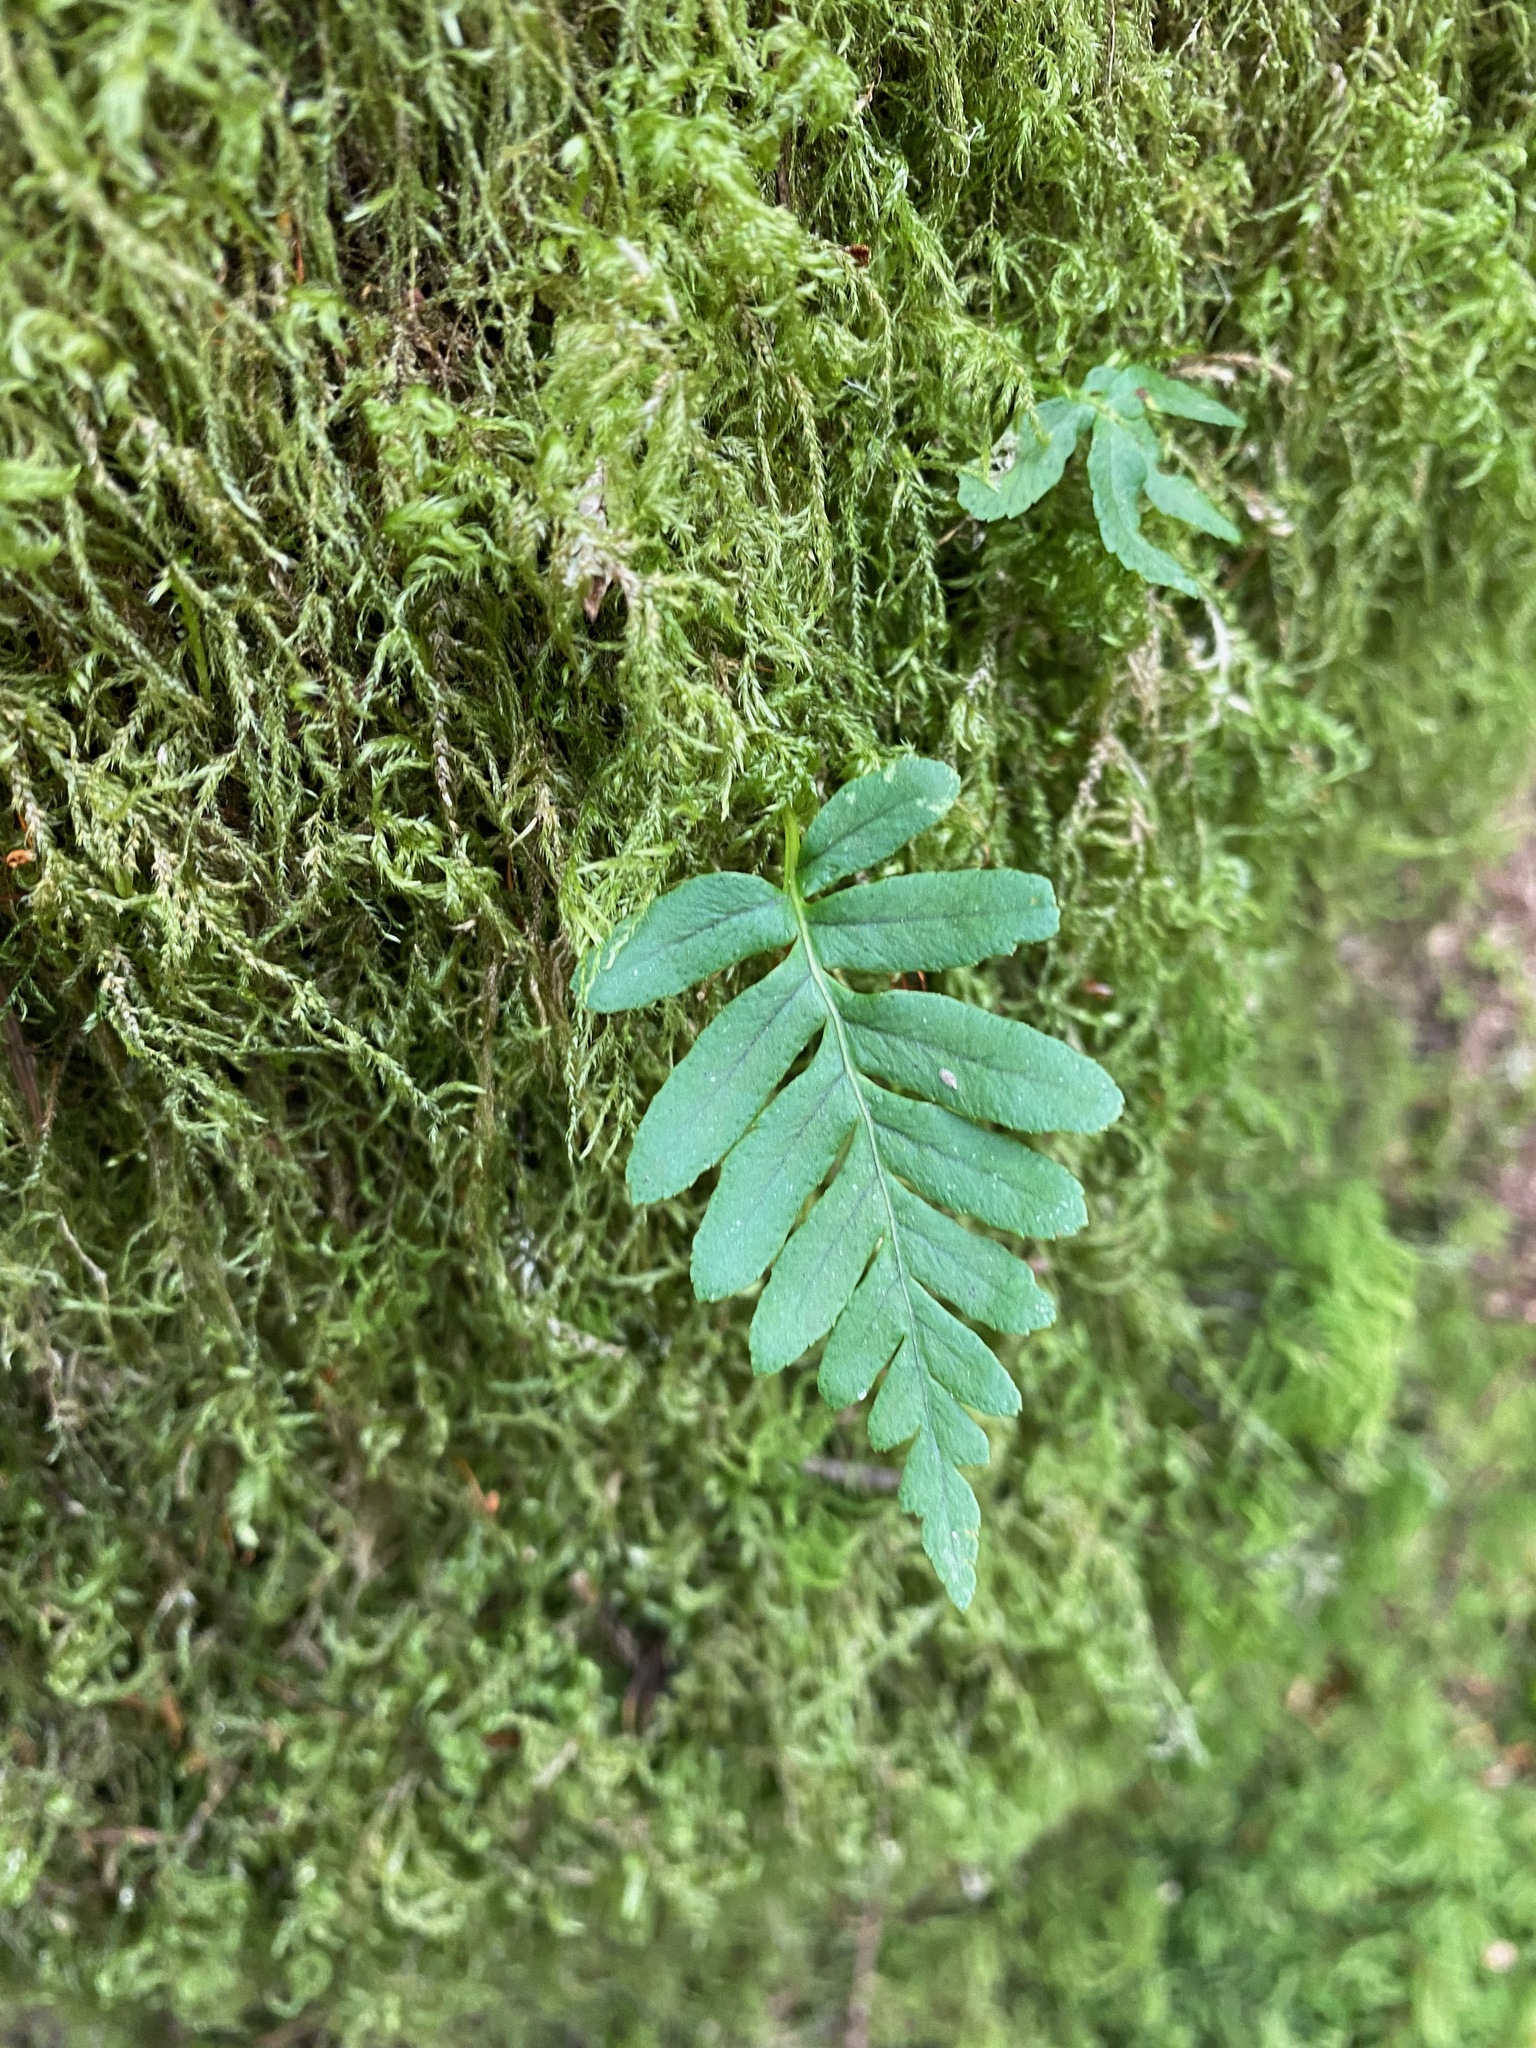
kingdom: Plantae
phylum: Tracheophyta
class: Polypodiopsida
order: Polypodiales
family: Polypodiaceae
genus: Polypodium
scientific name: Polypodium glycyrrhiza
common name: Licorice fern
